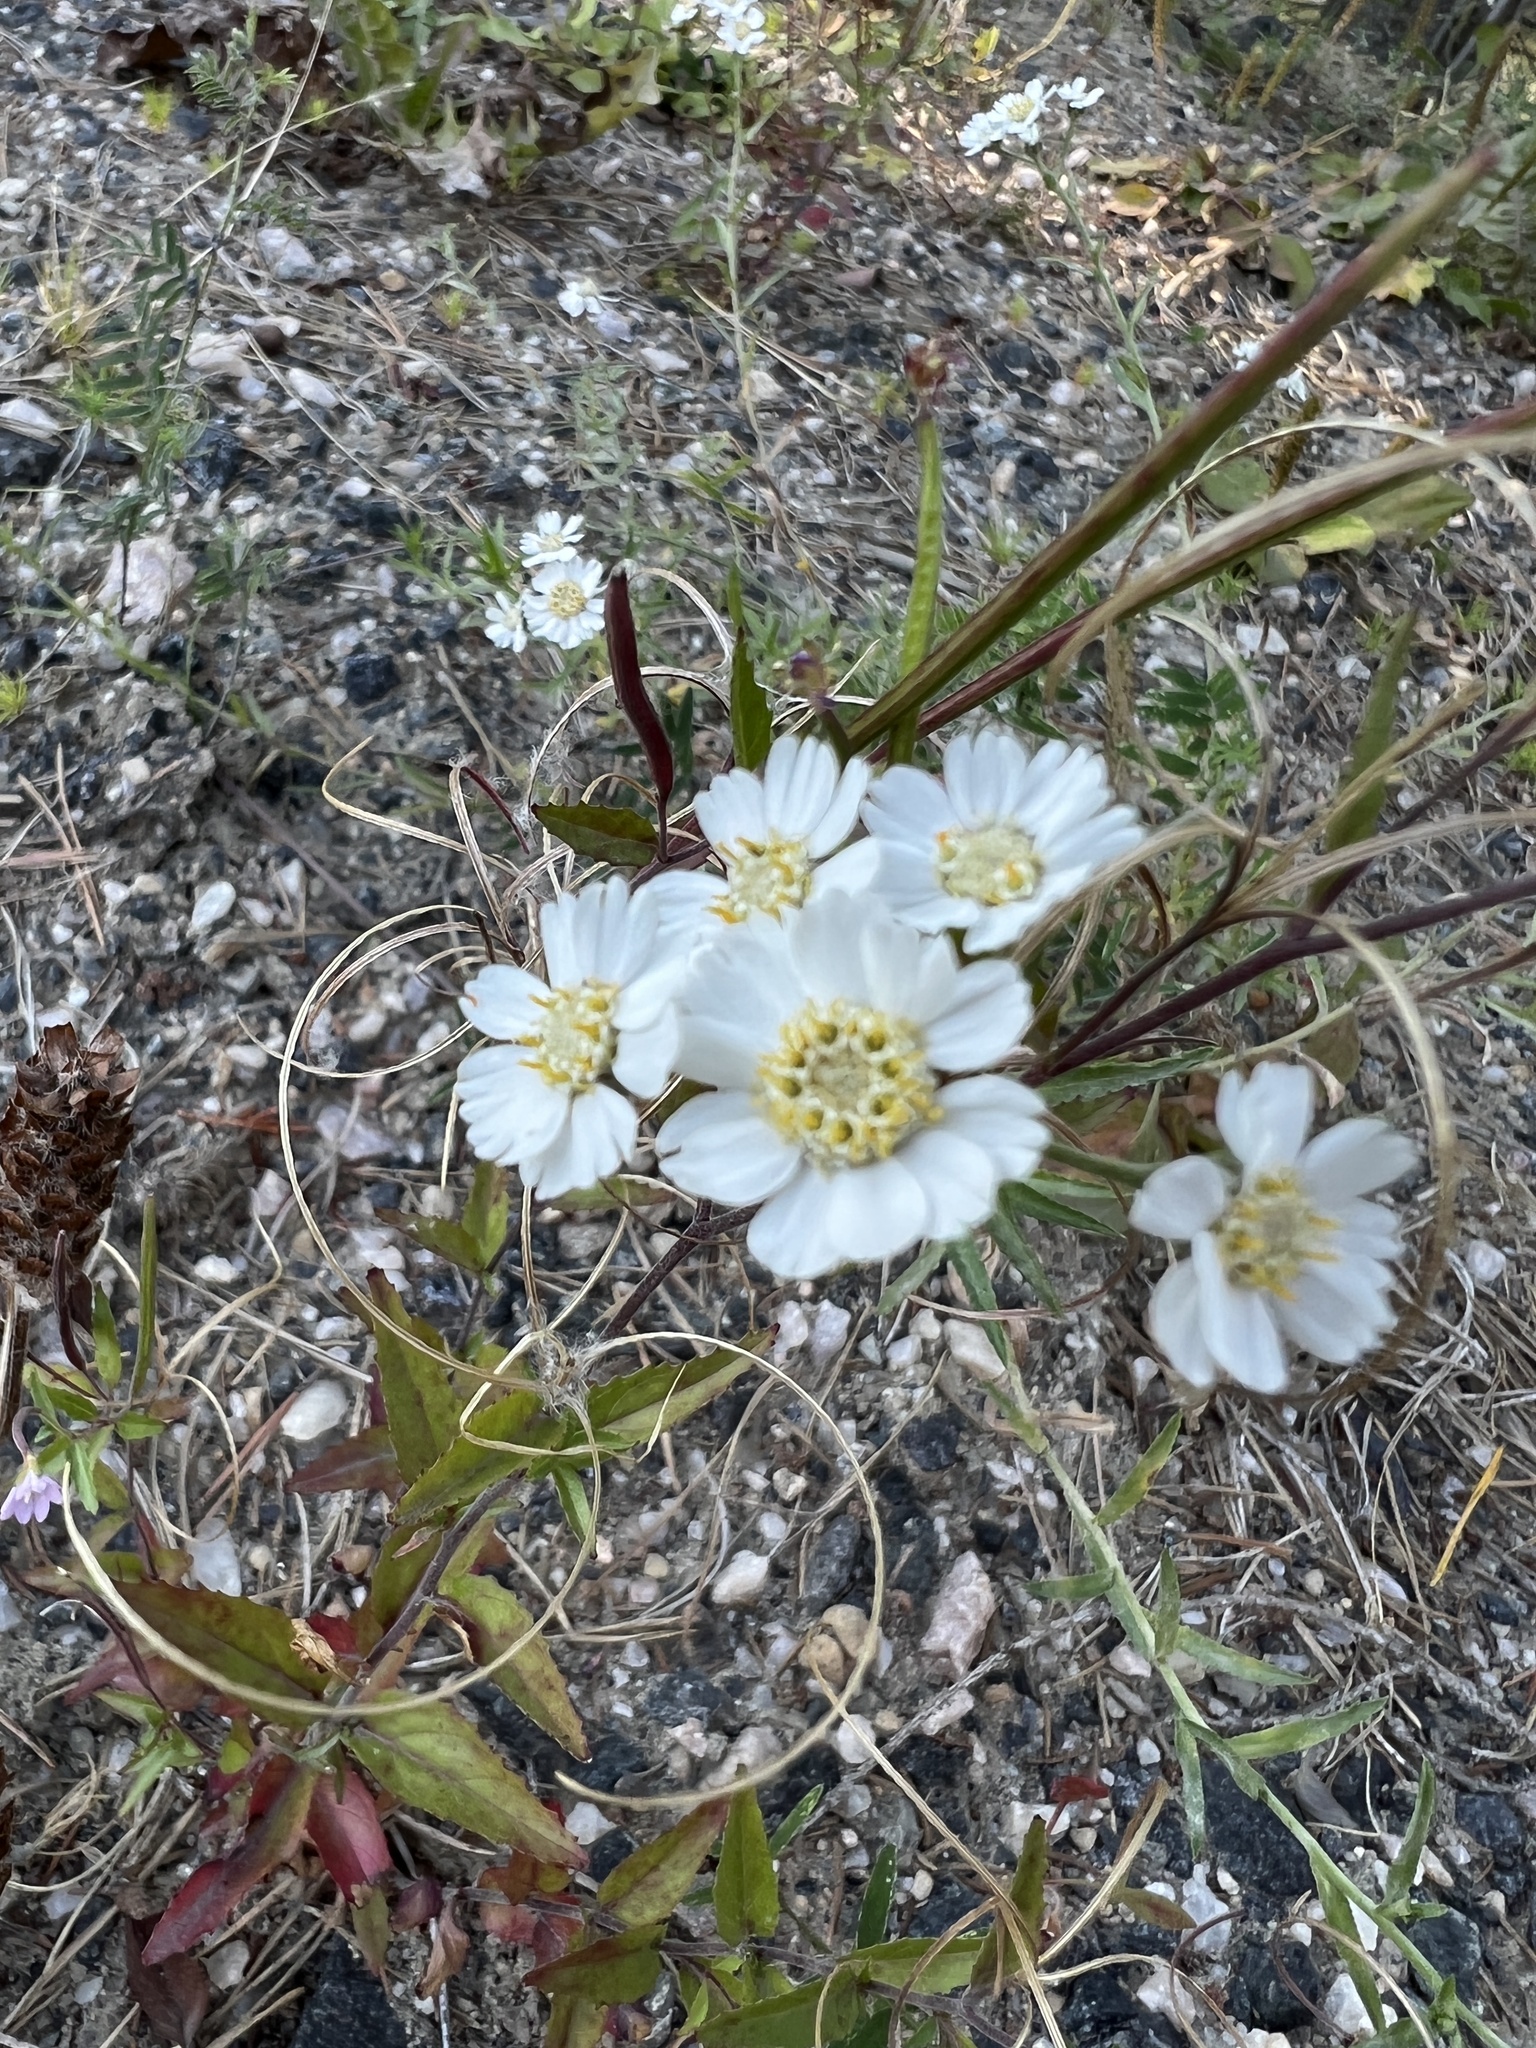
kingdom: Plantae
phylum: Tracheophyta
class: Magnoliopsida
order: Asterales
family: Asteraceae
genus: Achillea
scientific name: Achillea ptarmica
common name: Sneezeweed
